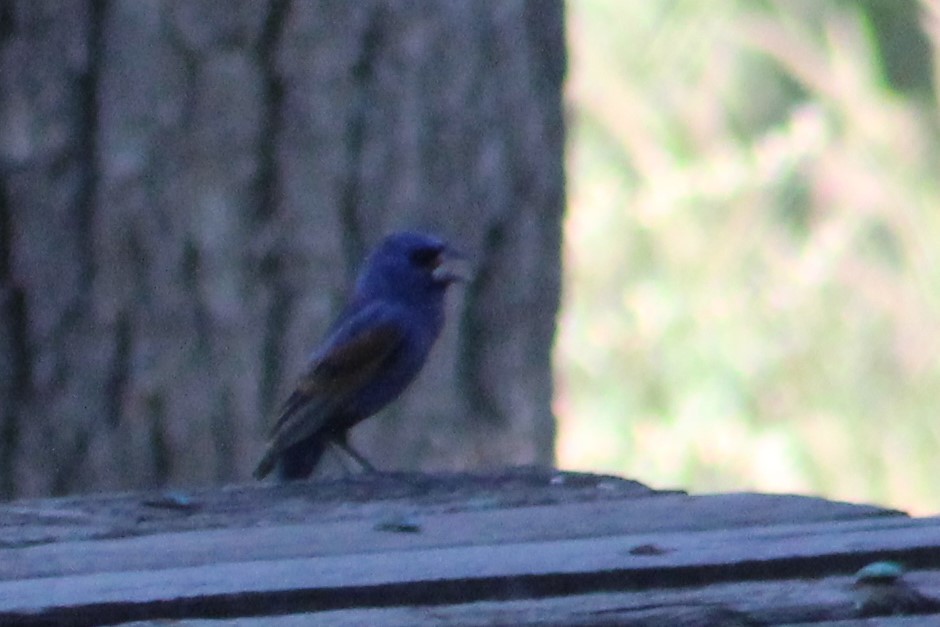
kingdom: Animalia
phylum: Chordata
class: Aves
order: Passeriformes
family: Cardinalidae
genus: Passerina
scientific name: Passerina caerulea
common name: Blue grosbeak
